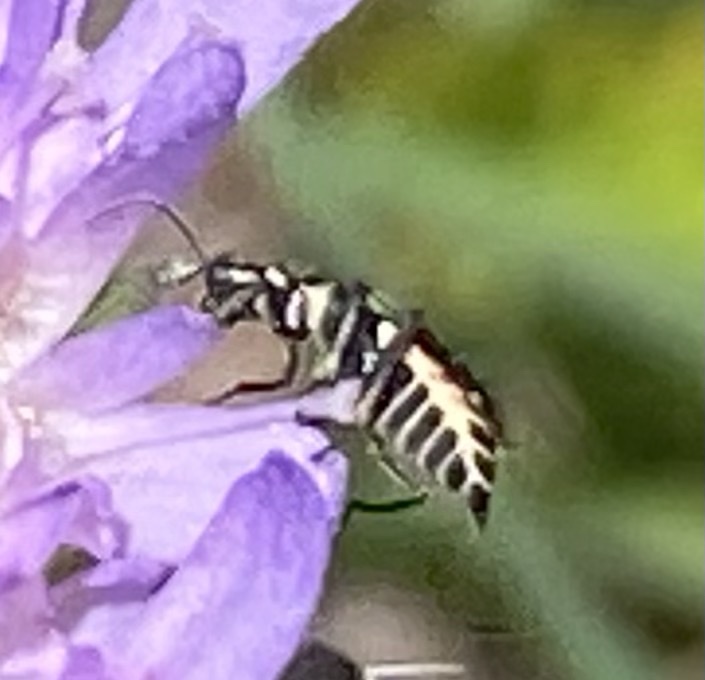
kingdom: Animalia
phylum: Arthropoda
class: Insecta
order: Coleoptera
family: Malachiidae
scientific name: Malachiidae
